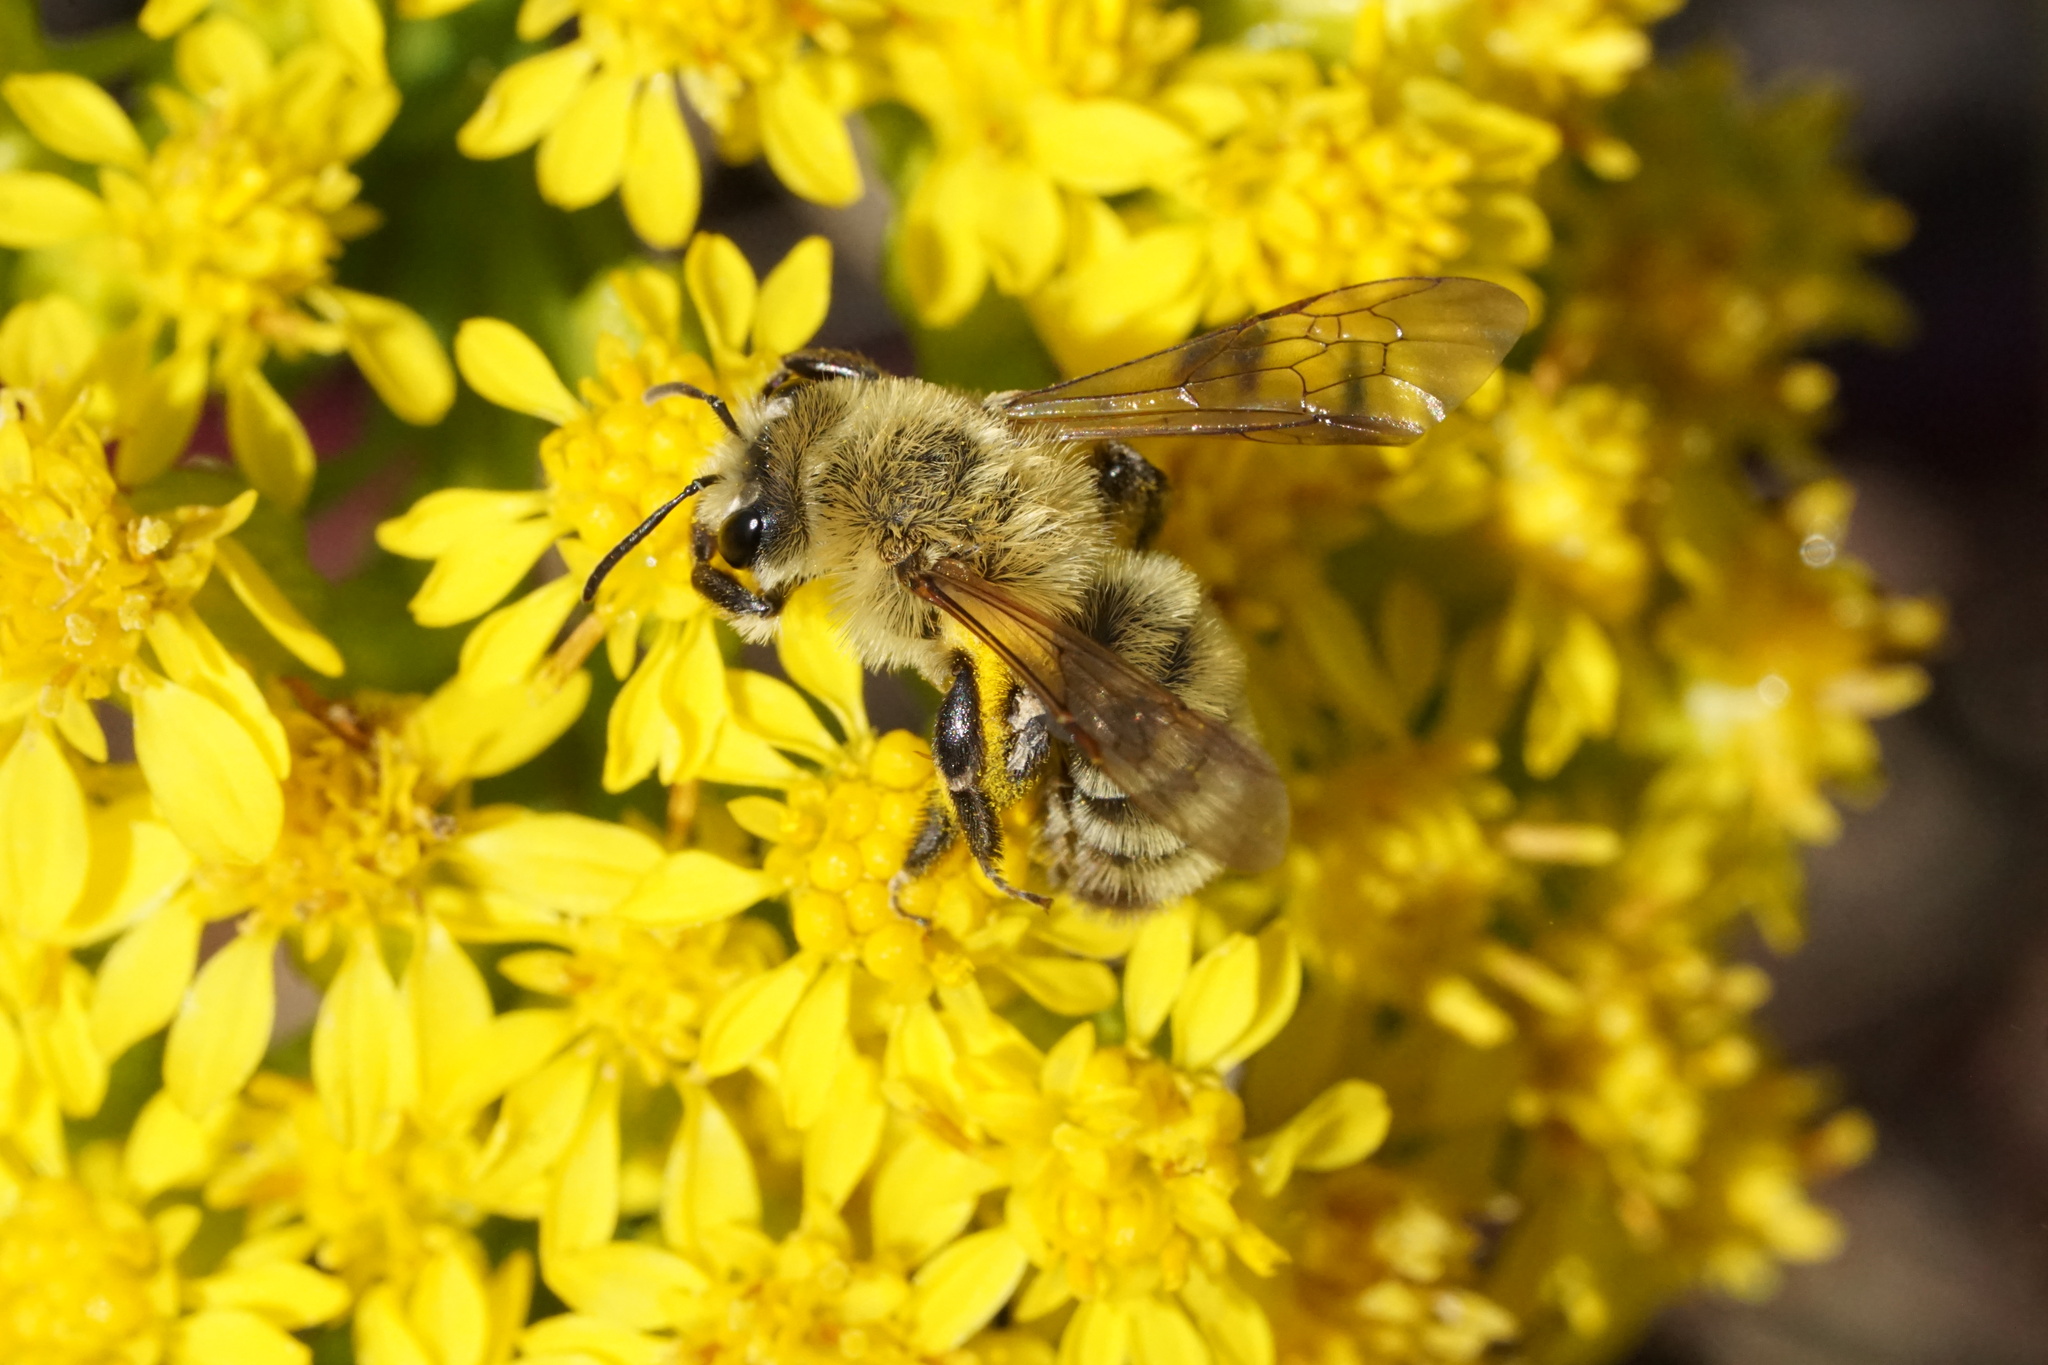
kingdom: Animalia
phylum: Arthropoda
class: Insecta
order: Hymenoptera
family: Andrenidae
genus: Andrena
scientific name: Andrena hirticincta
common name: Hairy-banded mining bee
